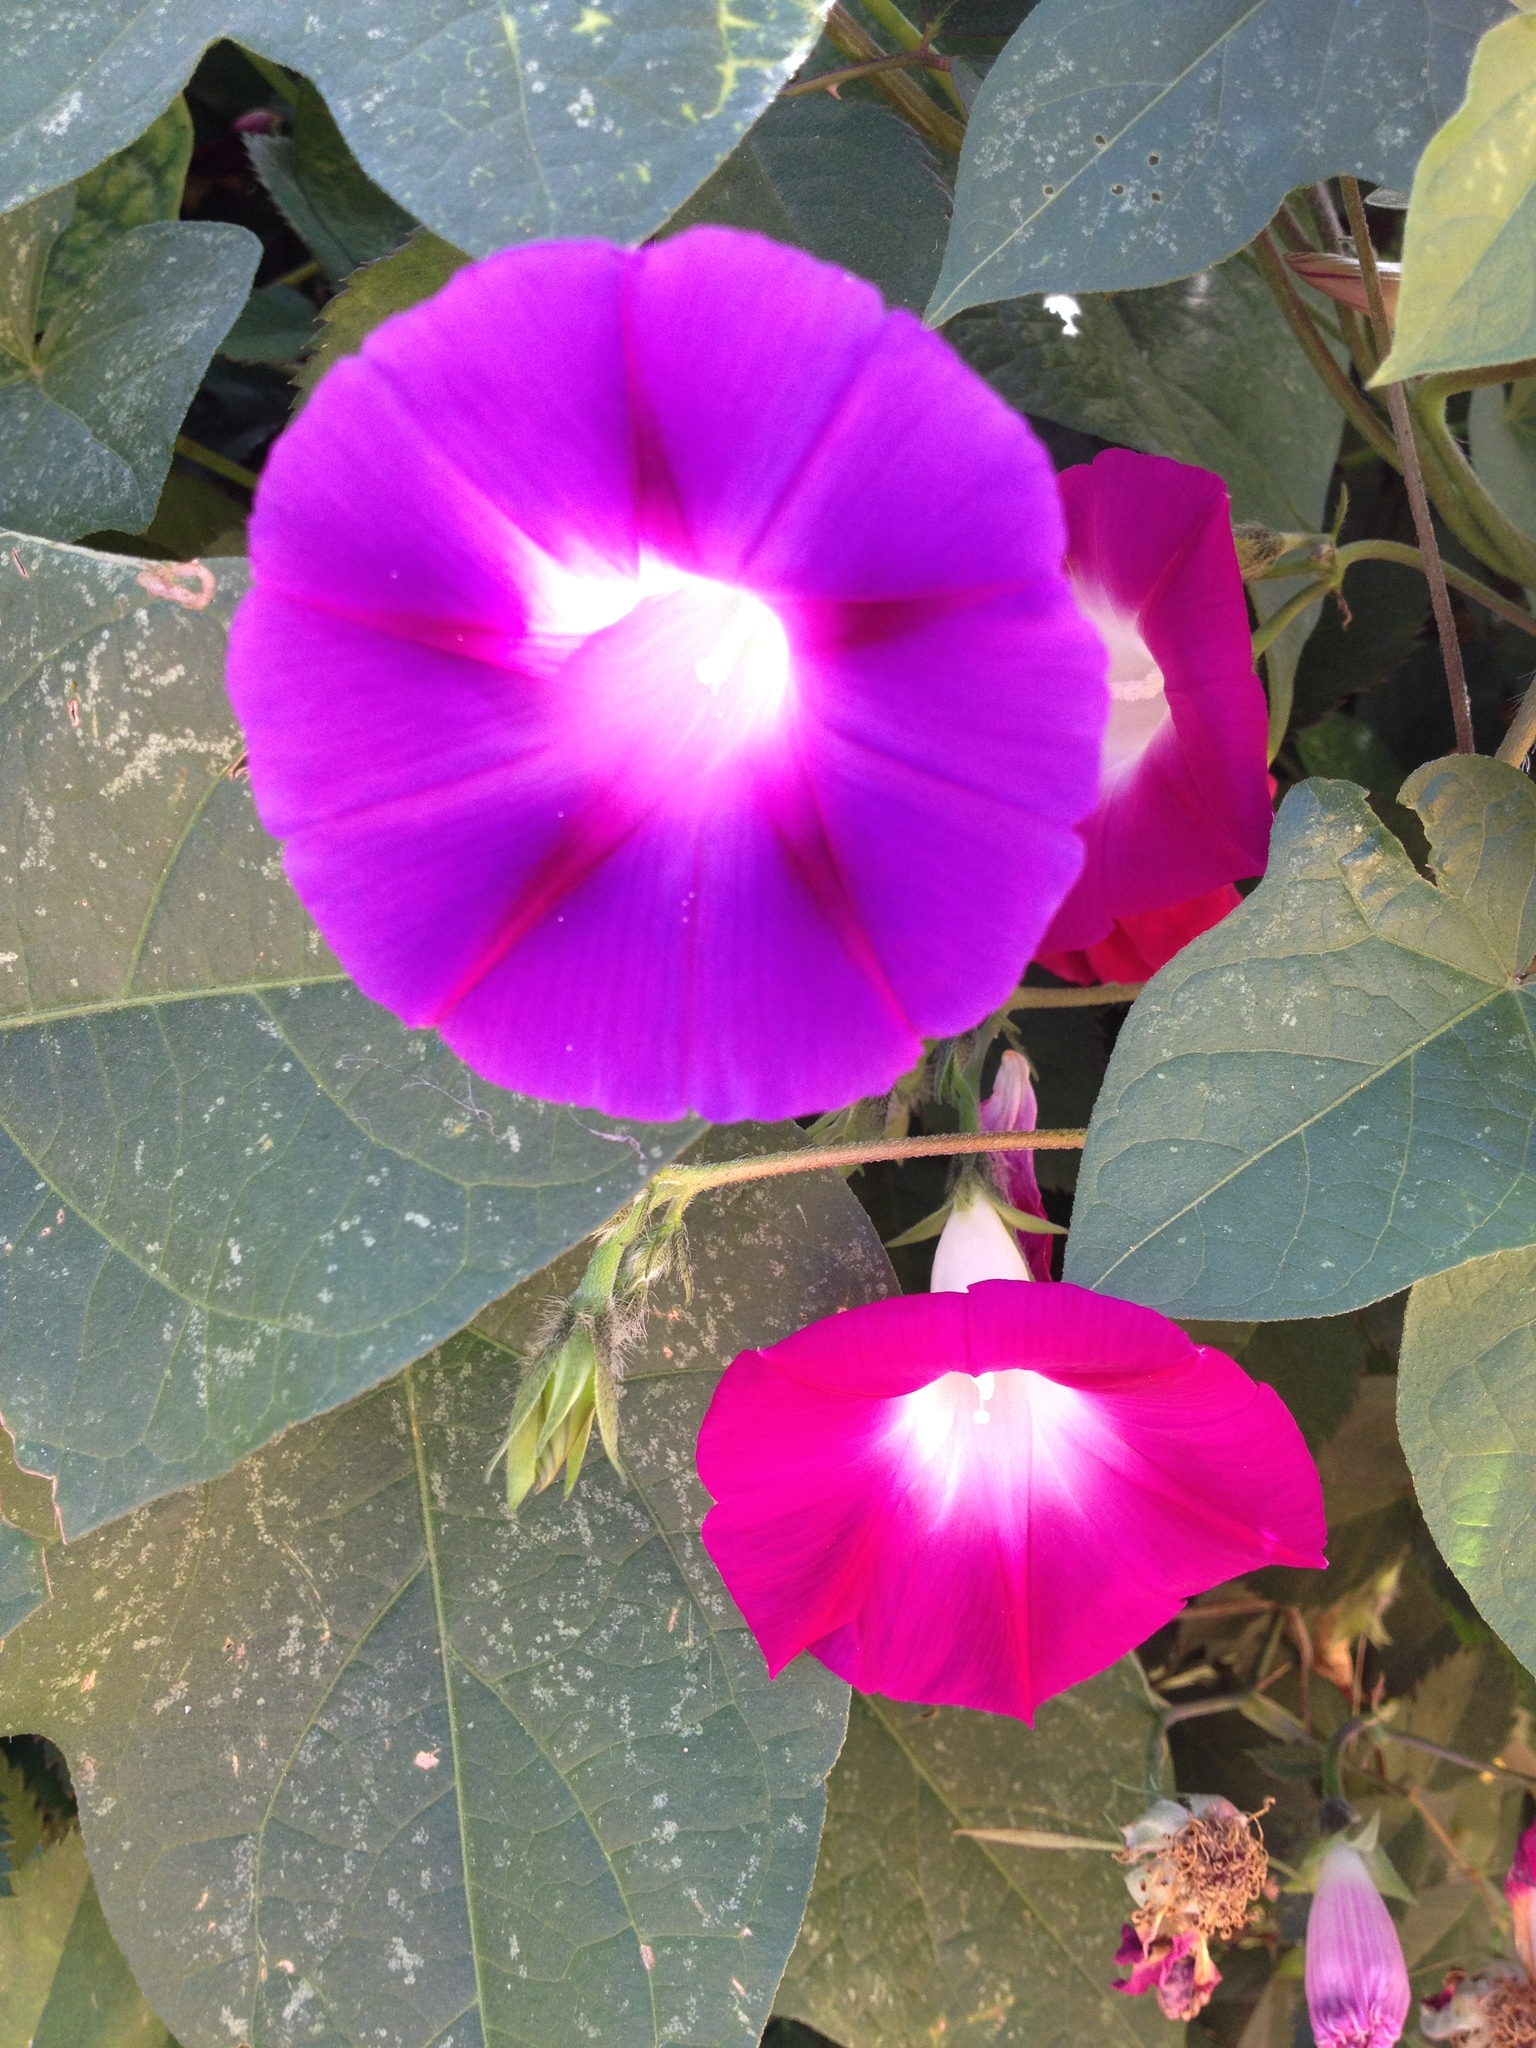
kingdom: Plantae
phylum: Tracheophyta
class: Magnoliopsida
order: Solanales
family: Convolvulaceae
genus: Ipomoea
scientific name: Ipomoea purpurea
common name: Common morning-glory
